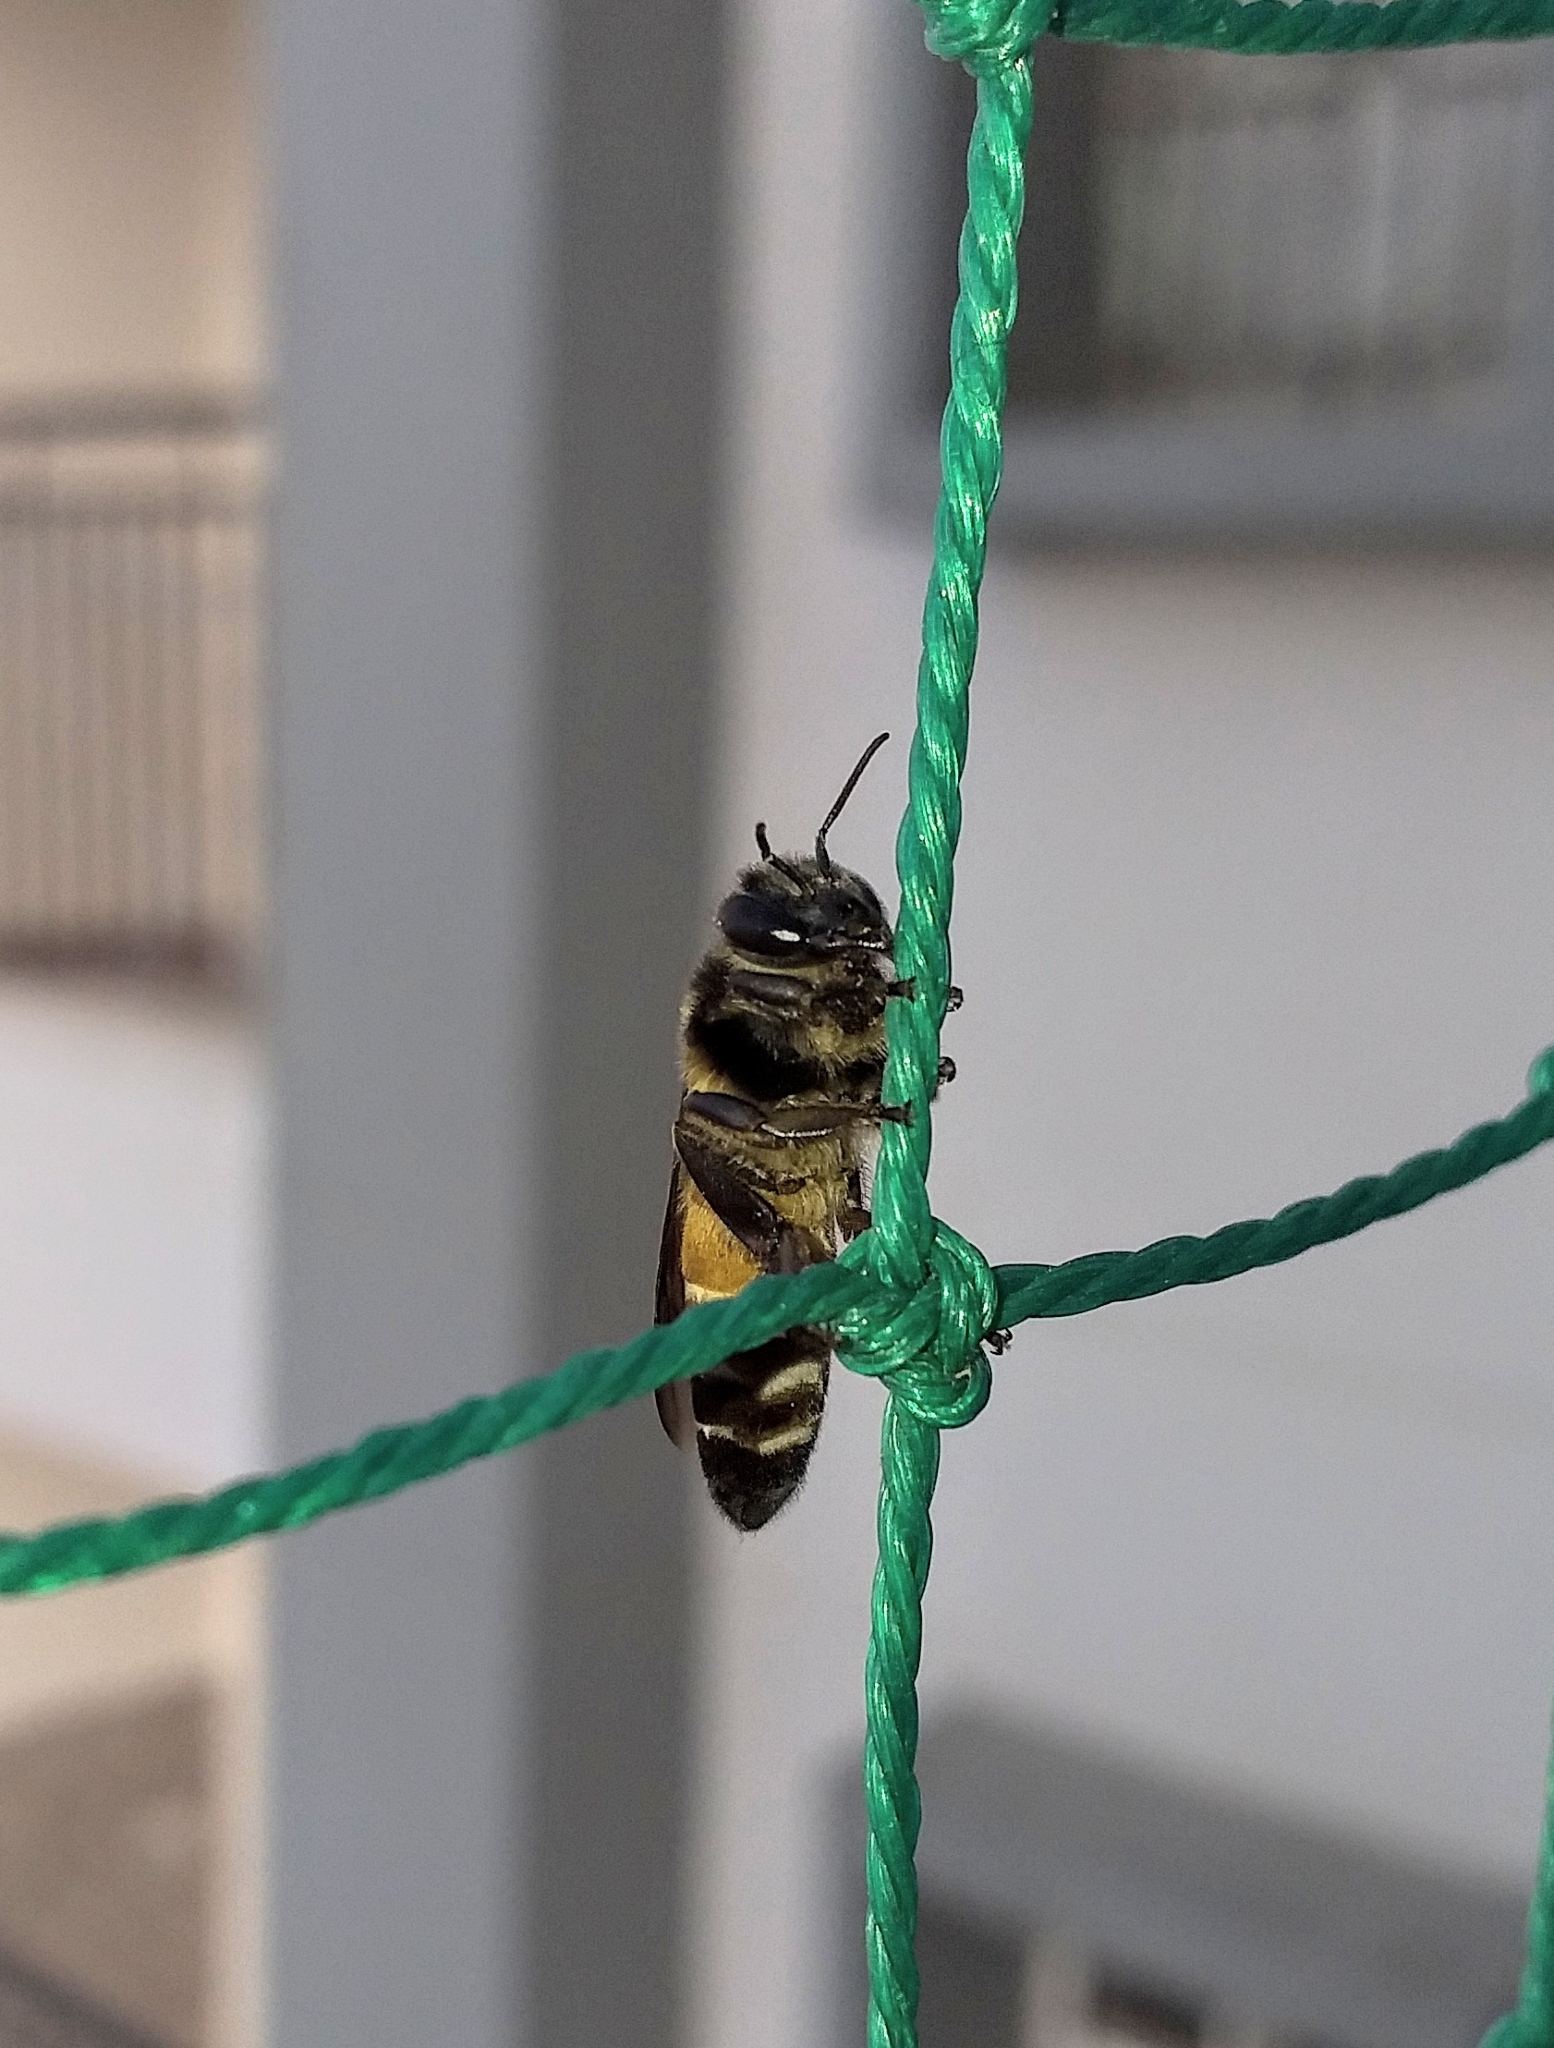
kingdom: Animalia
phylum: Arthropoda
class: Insecta
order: Hymenoptera
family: Apidae
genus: Apis
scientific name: Apis dorsata
